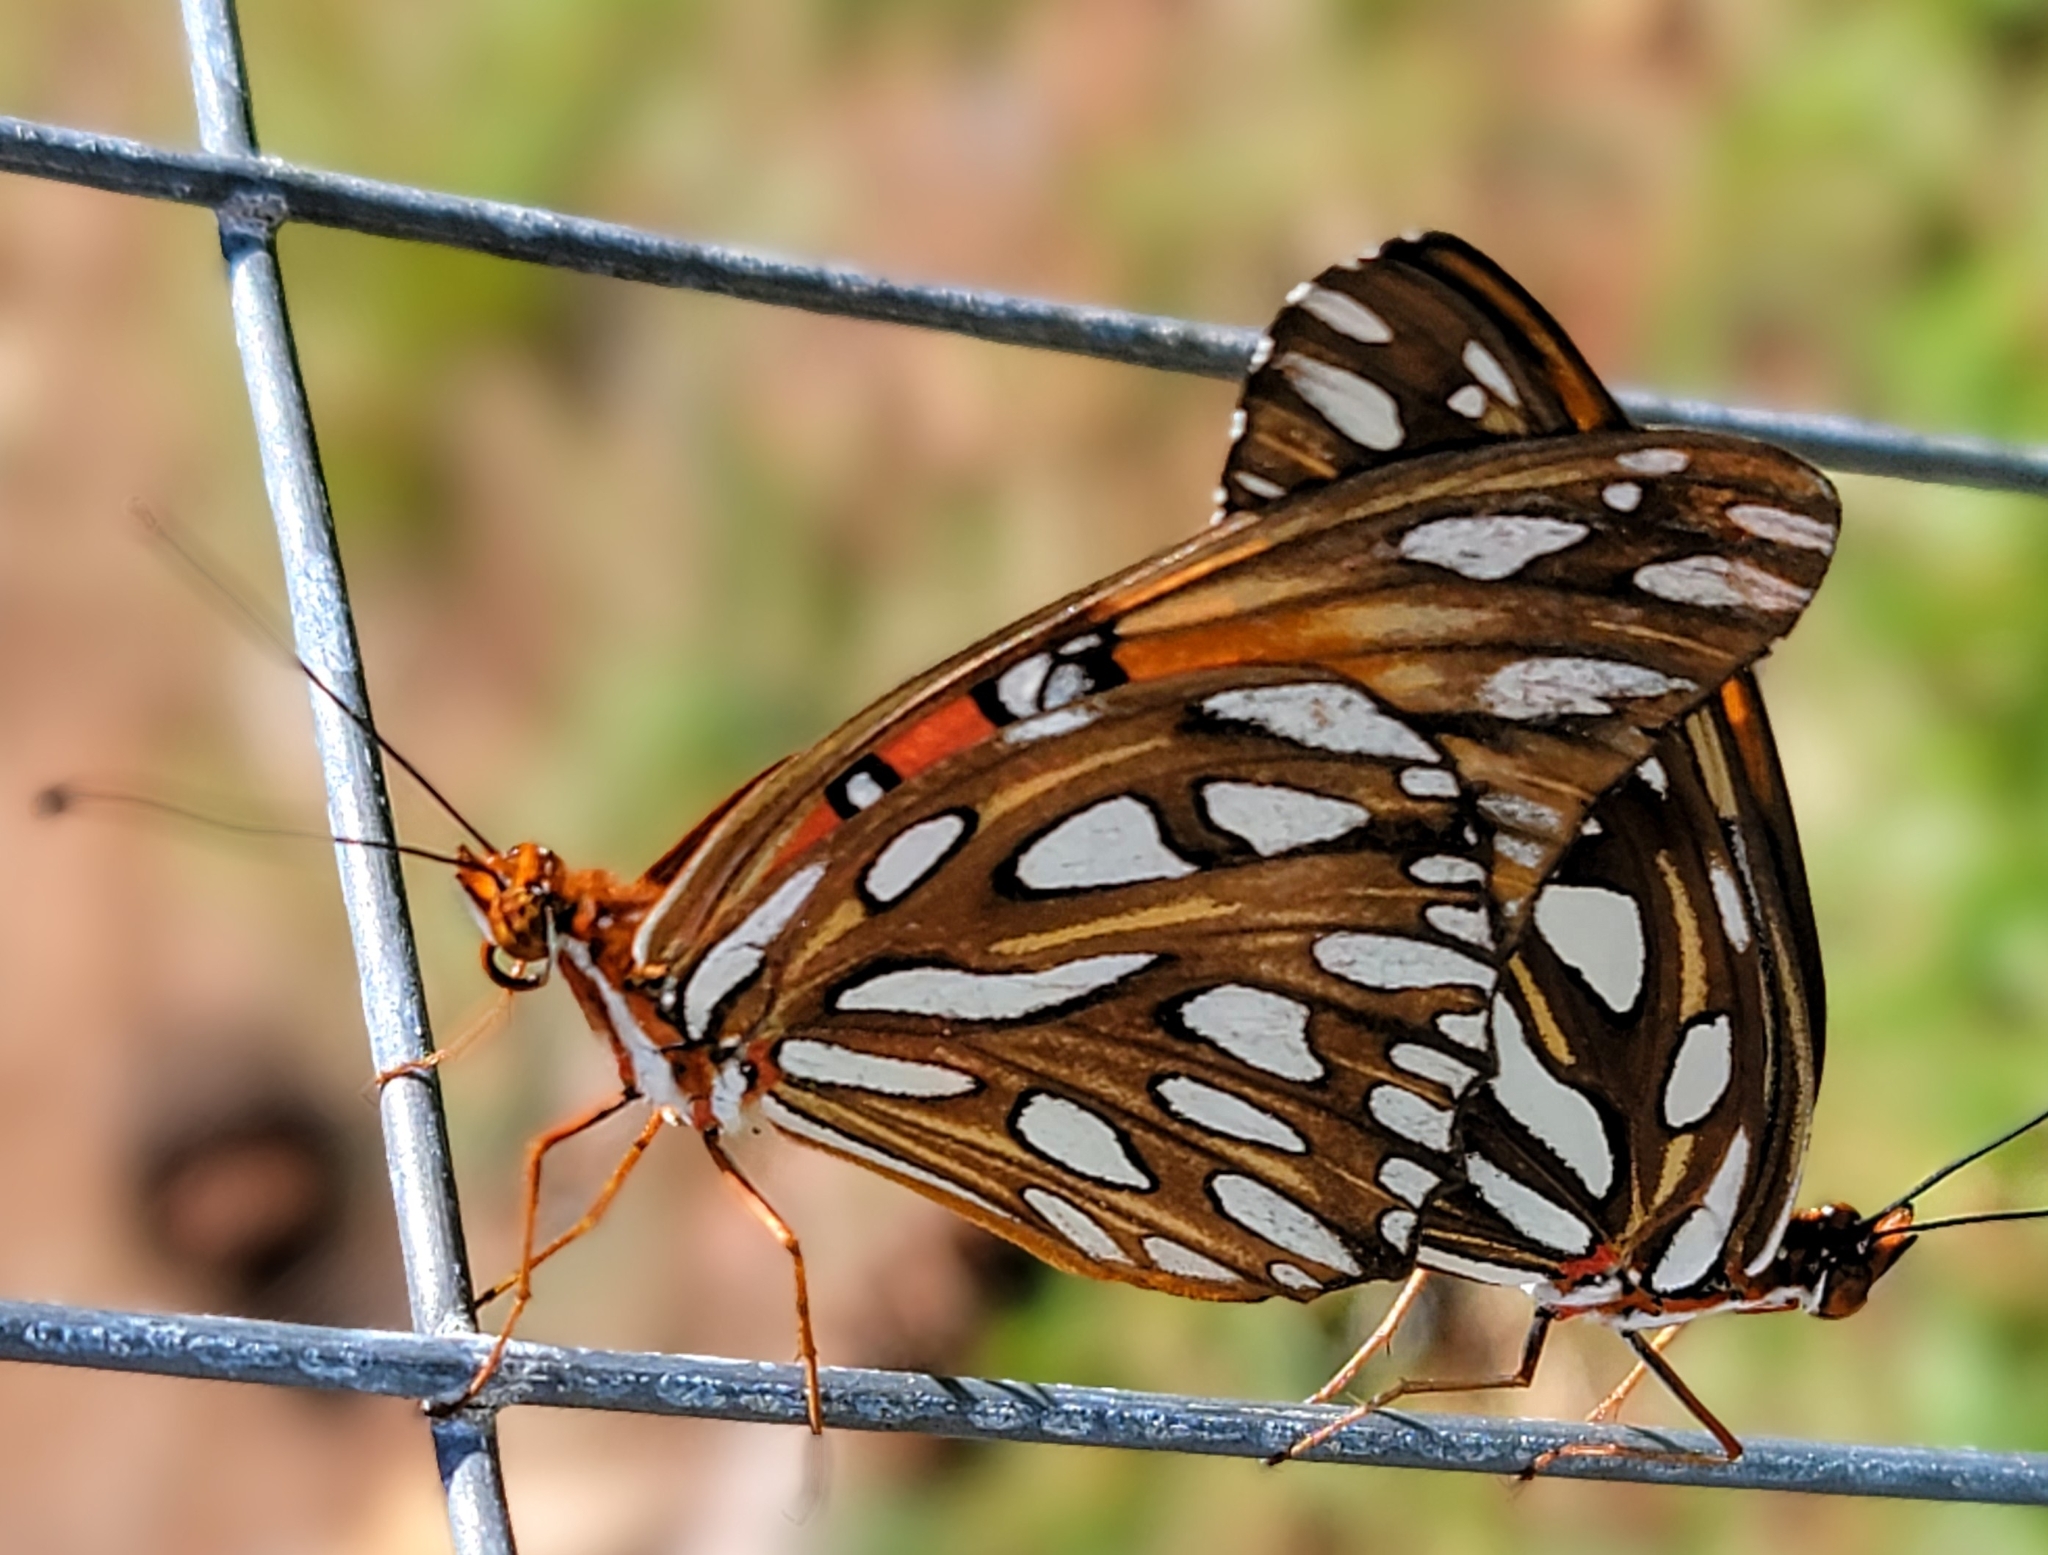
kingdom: Animalia
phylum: Arthropoda
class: Insecta
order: Lepidoptera
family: Nymphalidae
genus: Dione
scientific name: Dione vanillae
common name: Gulf fritillary
